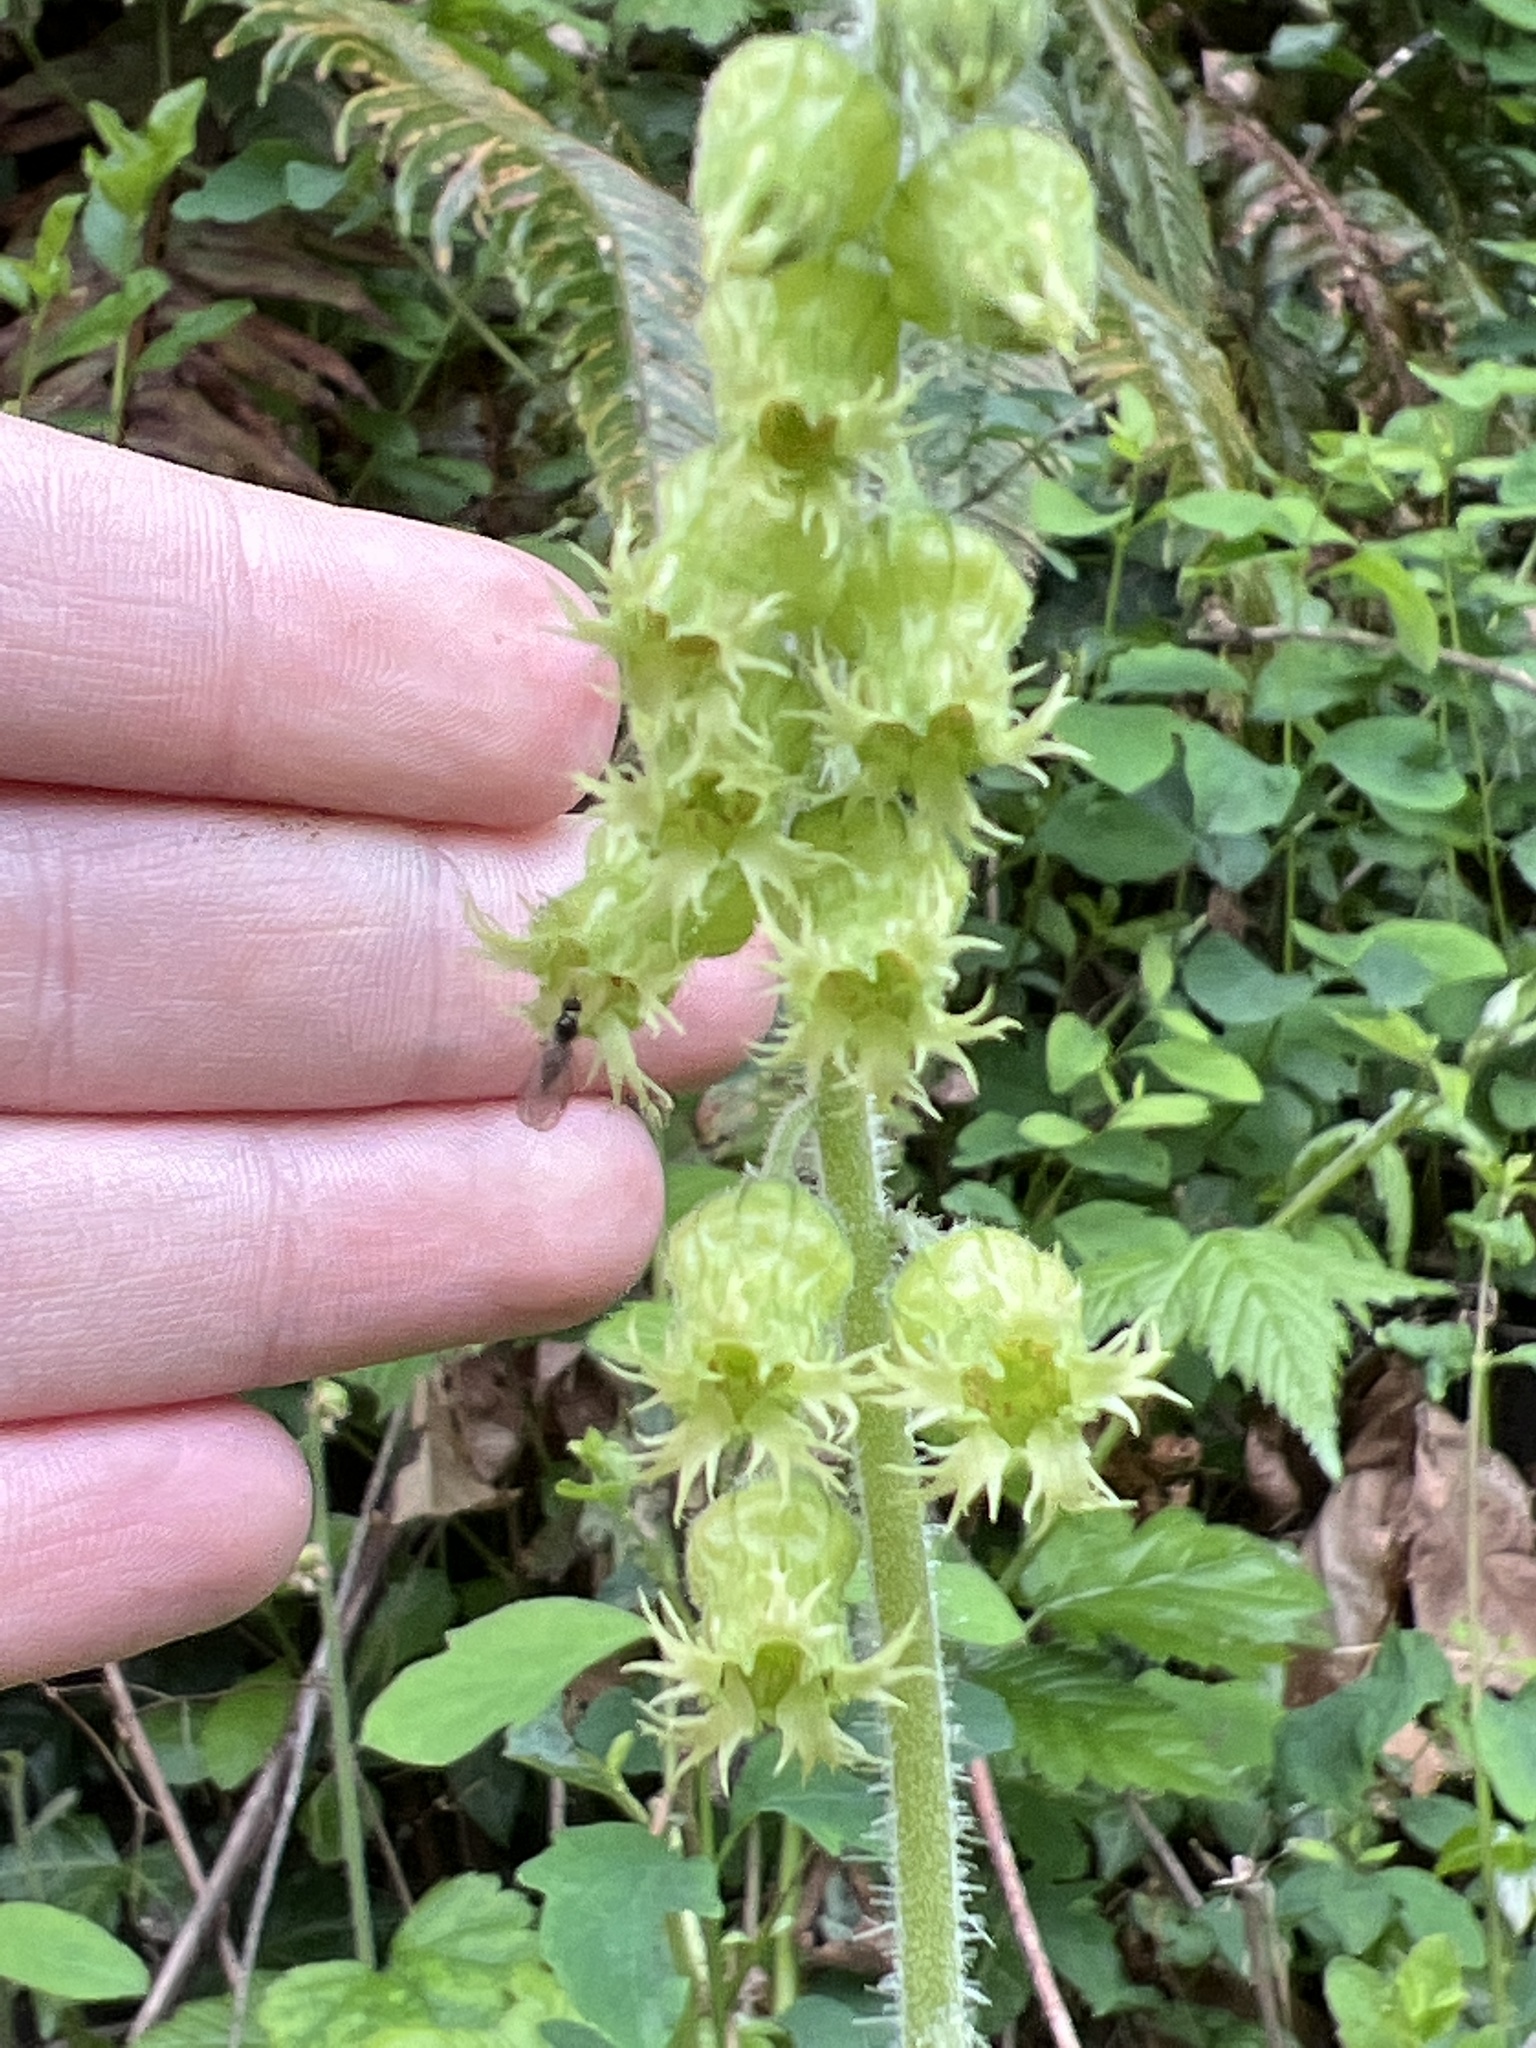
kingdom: Plantae
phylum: Tracheophyta
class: Magnoliopsida
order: Saxifragales
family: Saxifragaceae
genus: Tellima
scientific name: Tellima grandiflora
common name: Fringecups
